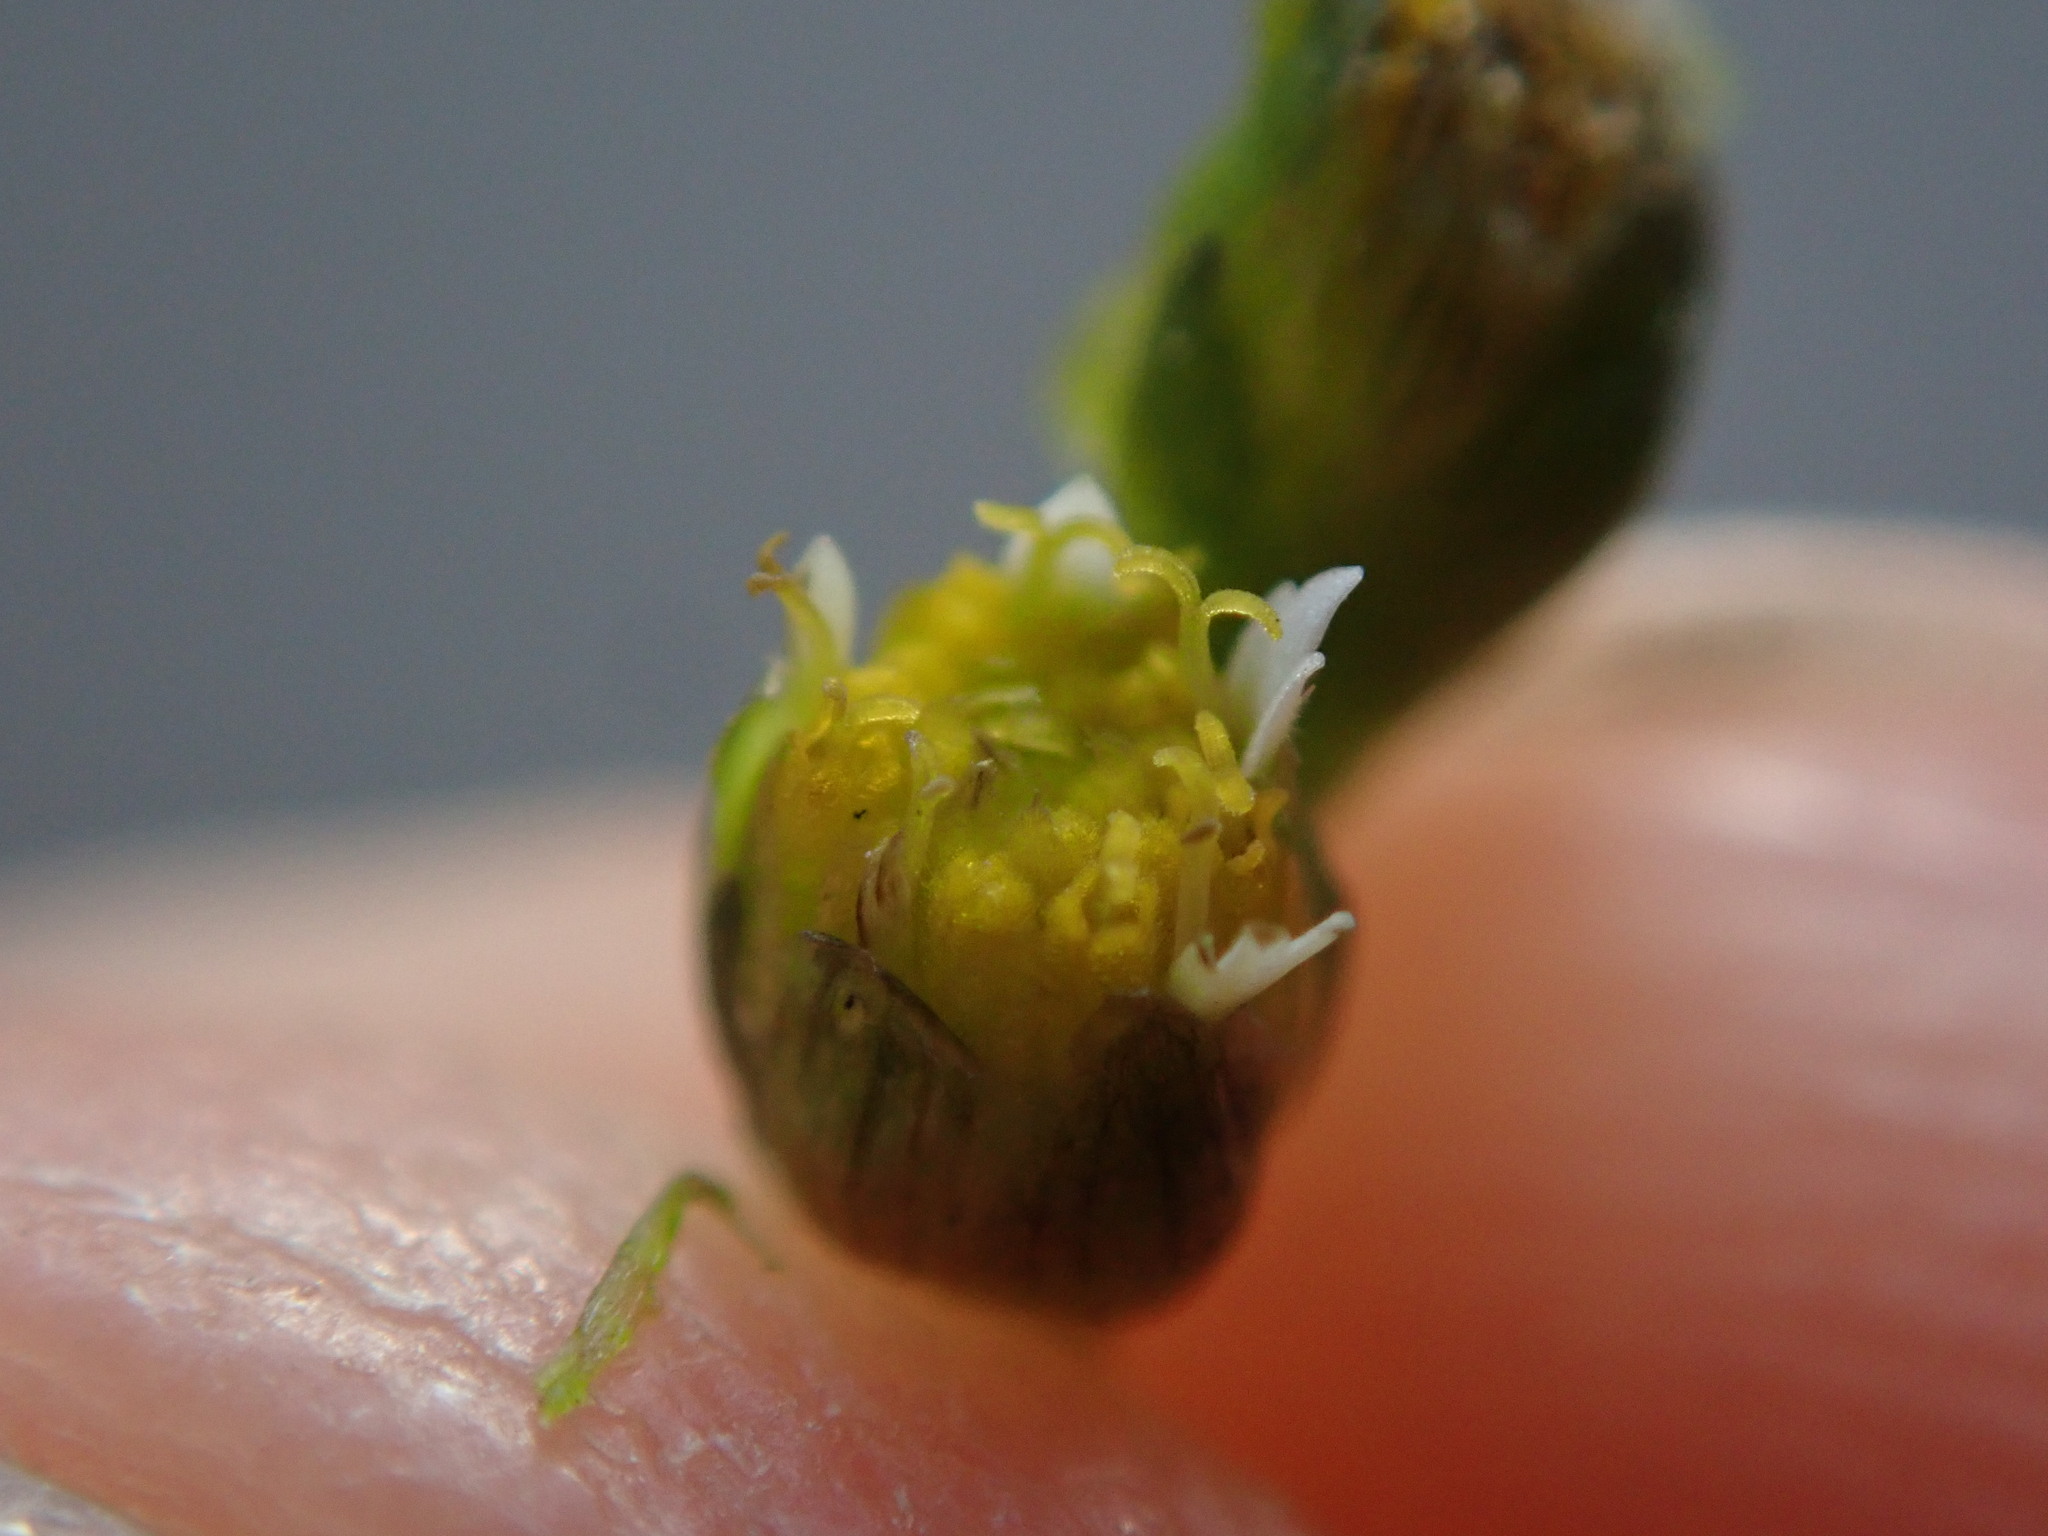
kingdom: Plantae
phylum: Tracheophyta
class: Magnoliopsida
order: Asterales
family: Asteraceae
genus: Galinsoga
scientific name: Galinsoga parviflora
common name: Gallant soldier
